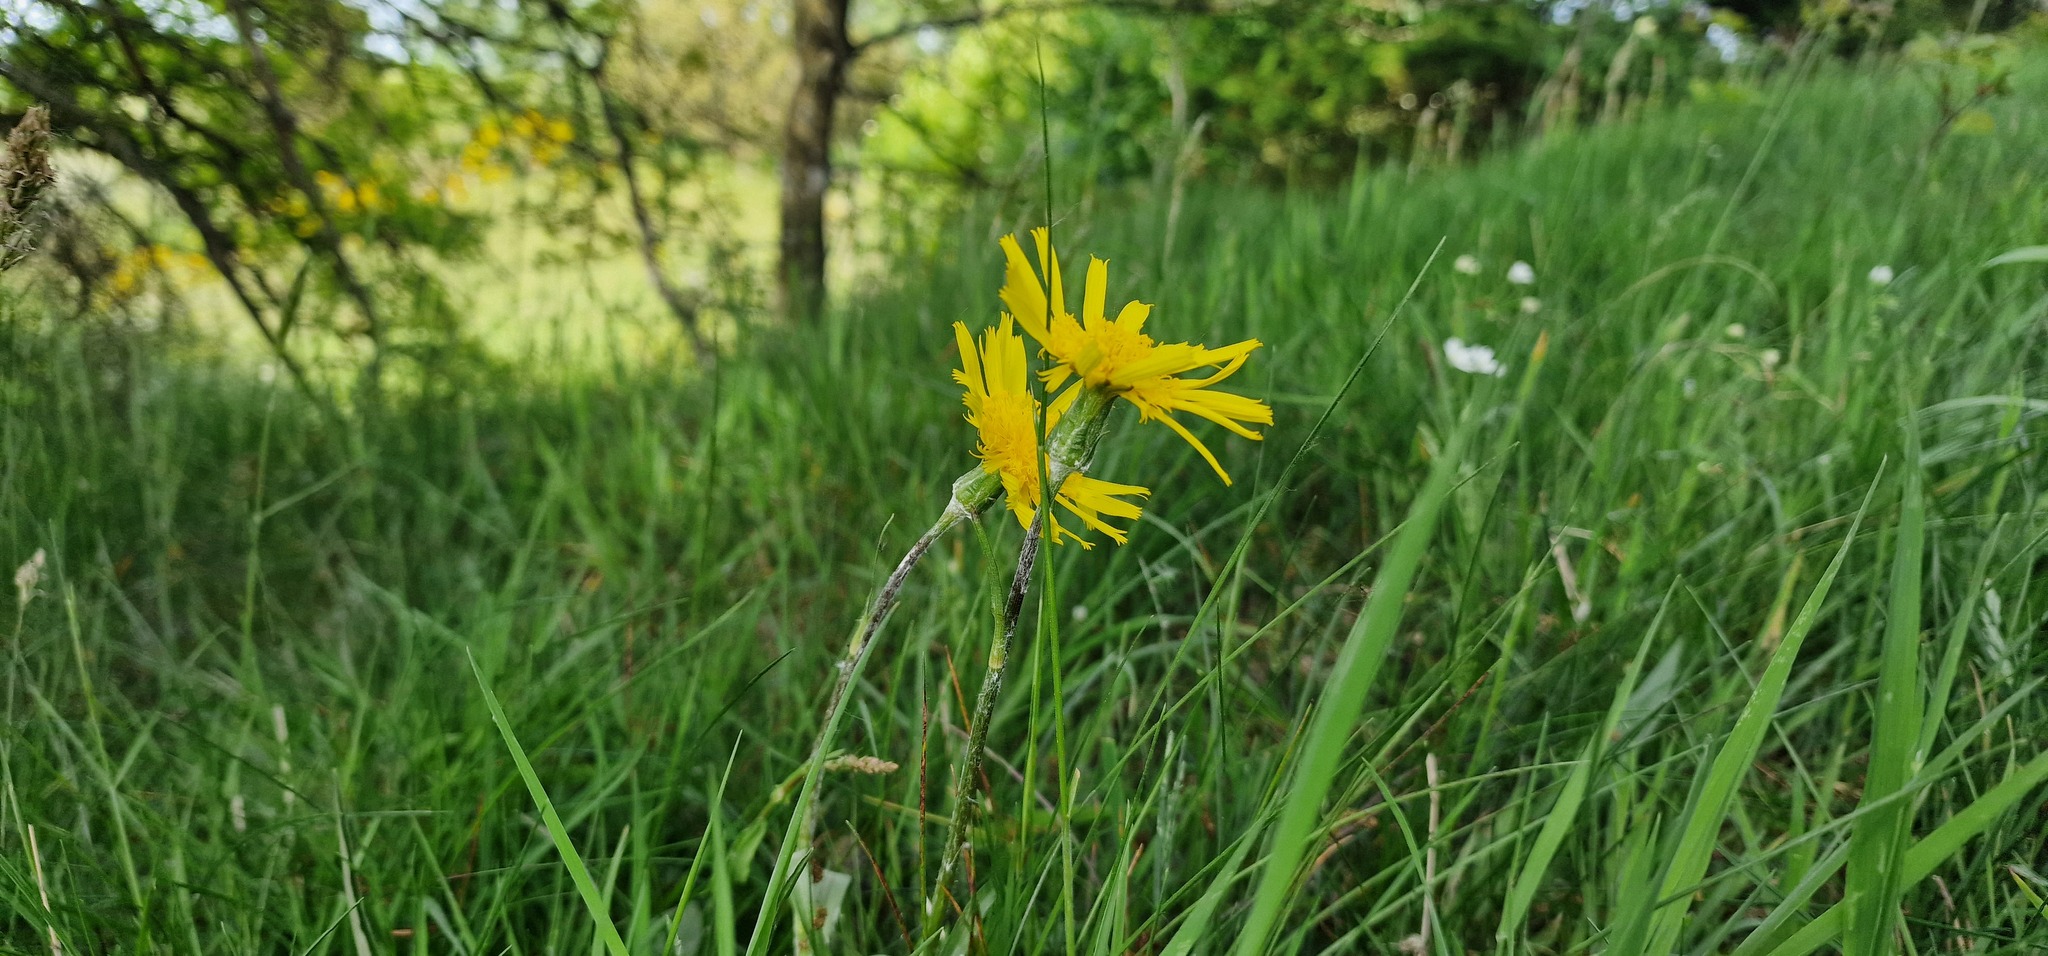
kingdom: Plantae
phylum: Tracheophyta
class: Magnoliopsida
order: Asterales
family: Asteraceae
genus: Scorzonera
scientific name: Scorzonera humilis
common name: Viper's-grass
